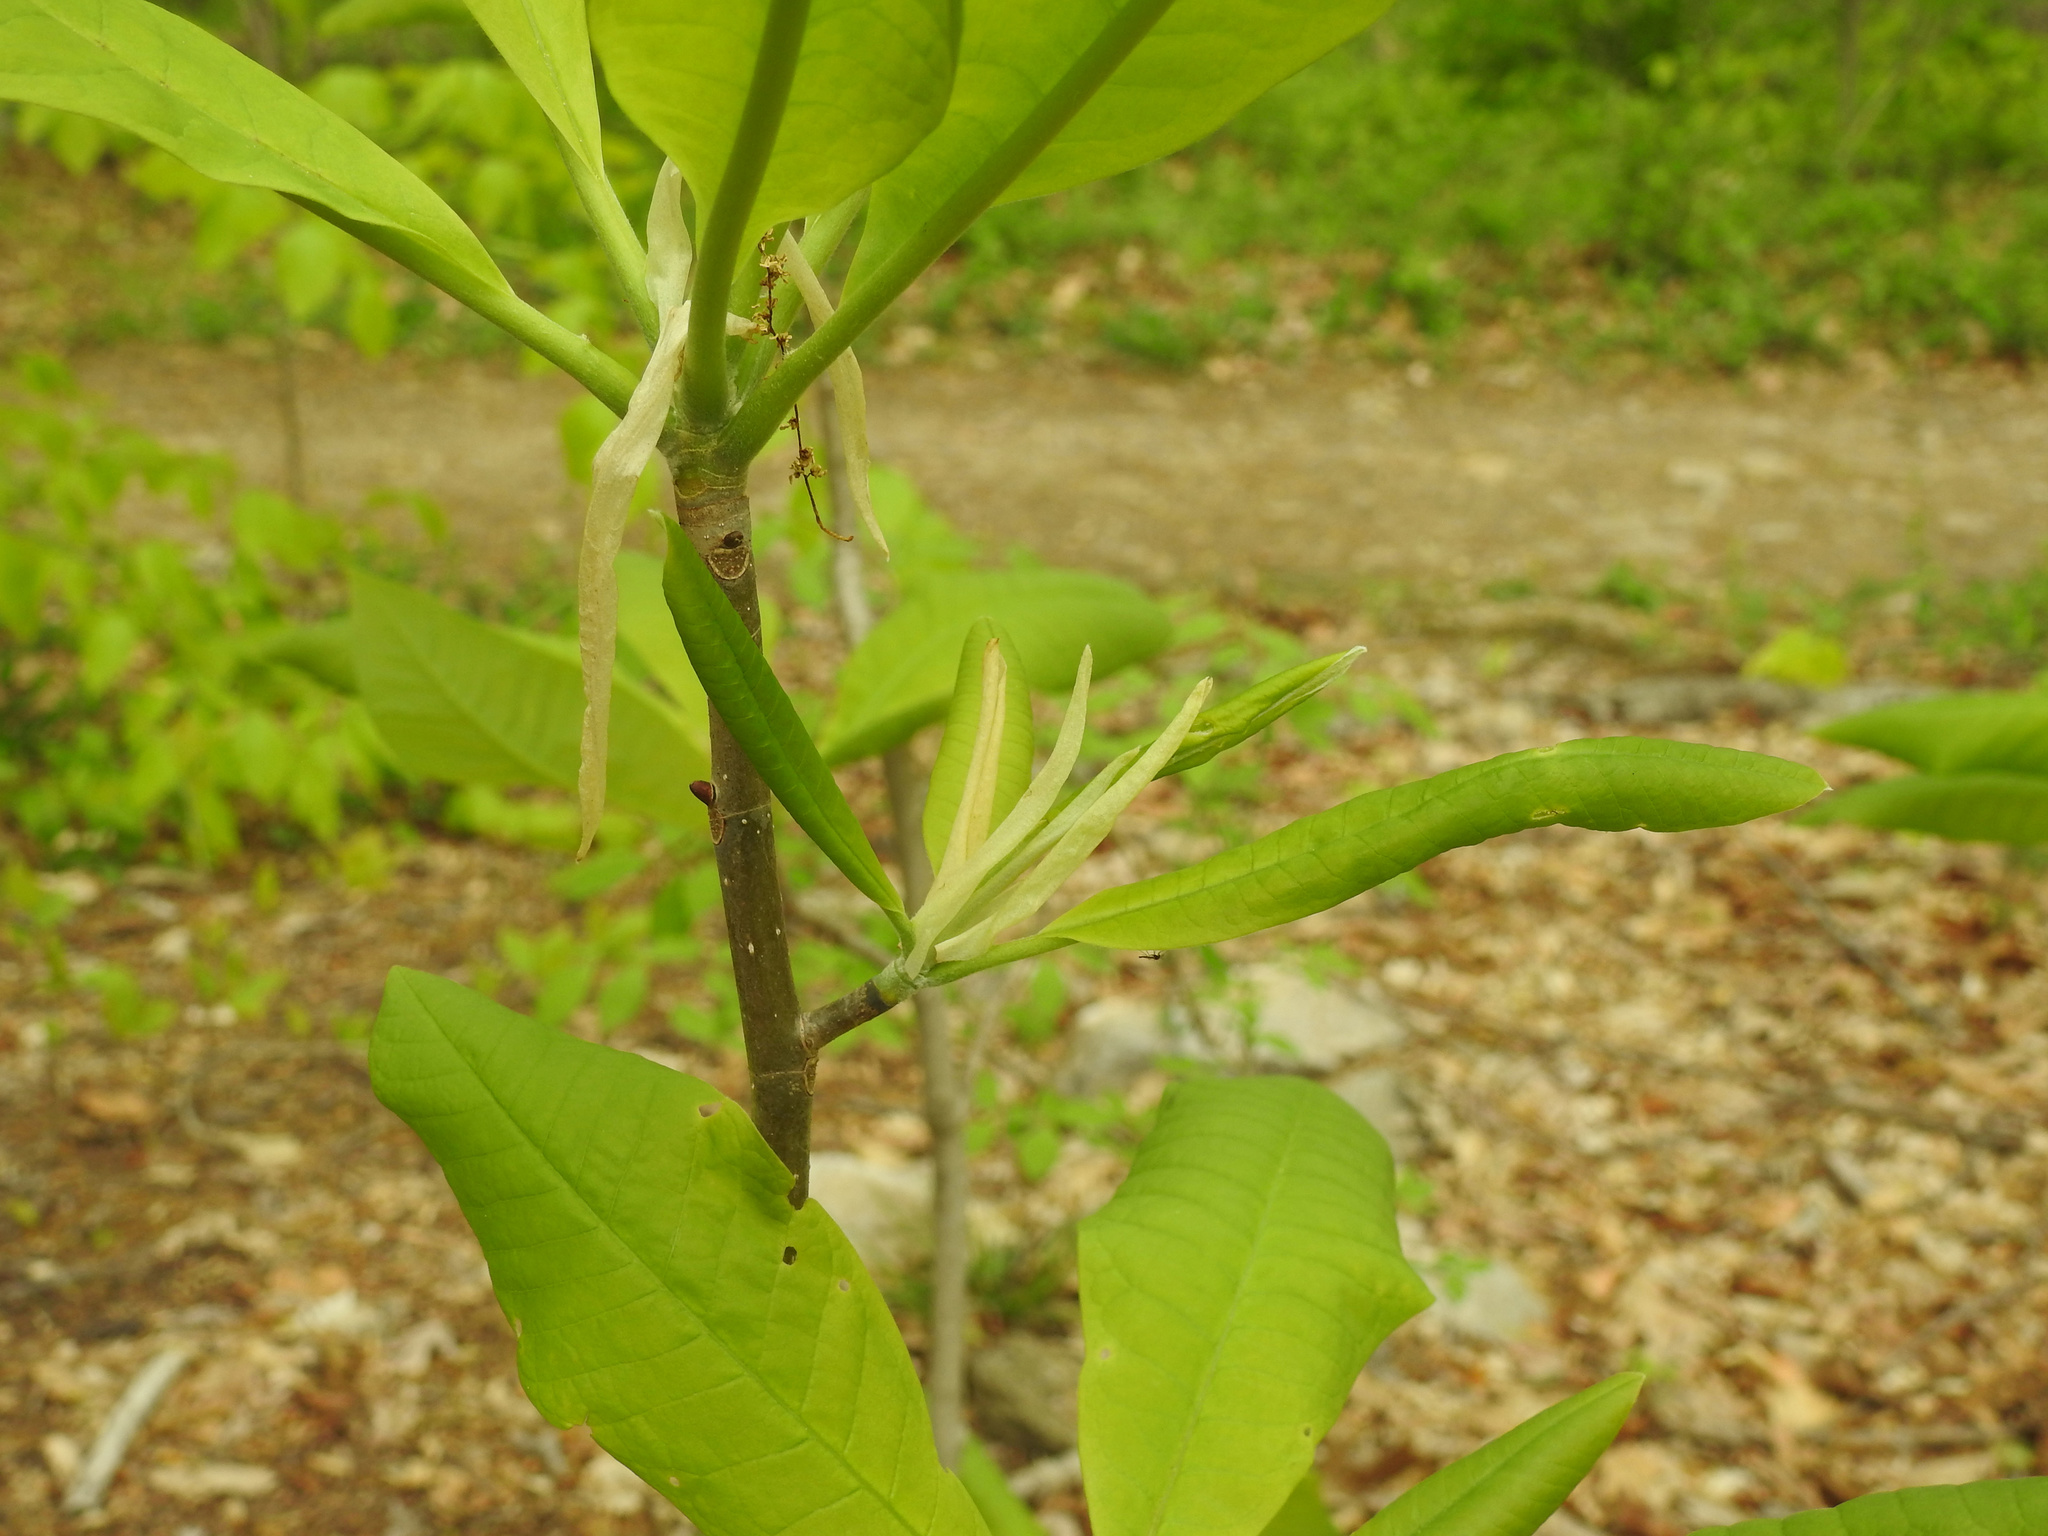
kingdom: Plantae
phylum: Tracheophyta
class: Magnoliopsida
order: Magnoliales
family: Magnoliaceae
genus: Magnolia
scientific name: Magnolia tripetala
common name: Umbrella magnolia
